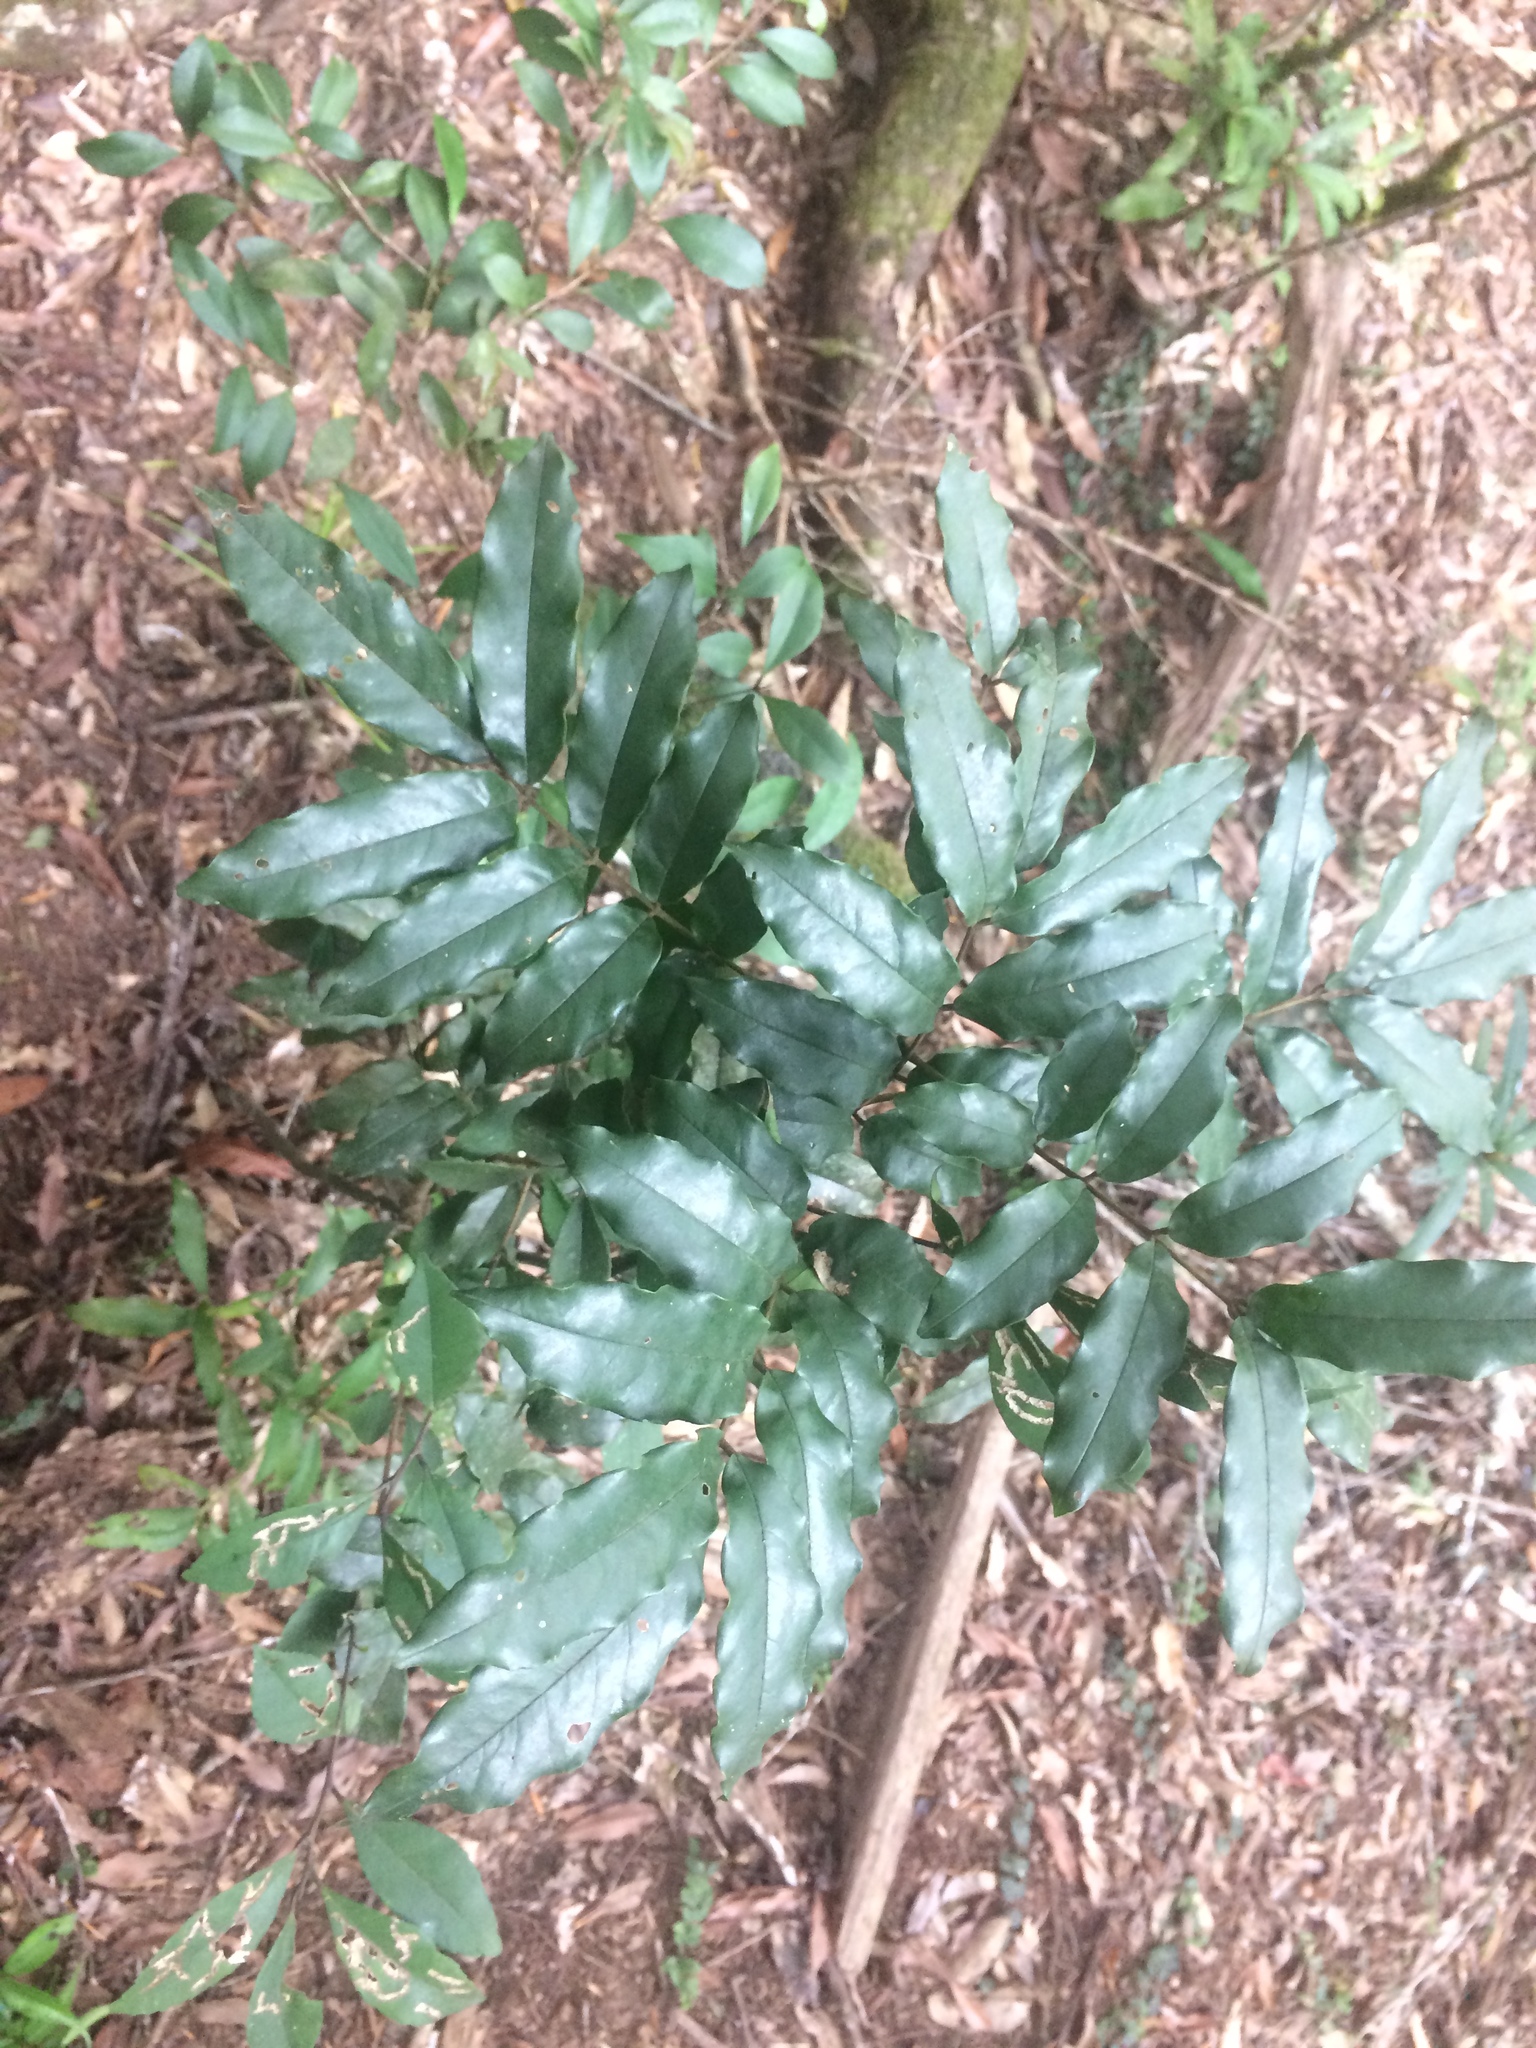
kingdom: Plantae
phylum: Tracheophyta
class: Magnoliopsida
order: Fabales
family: Fabaceae
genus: Ormosia
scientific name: Ormosia hengchuniana
